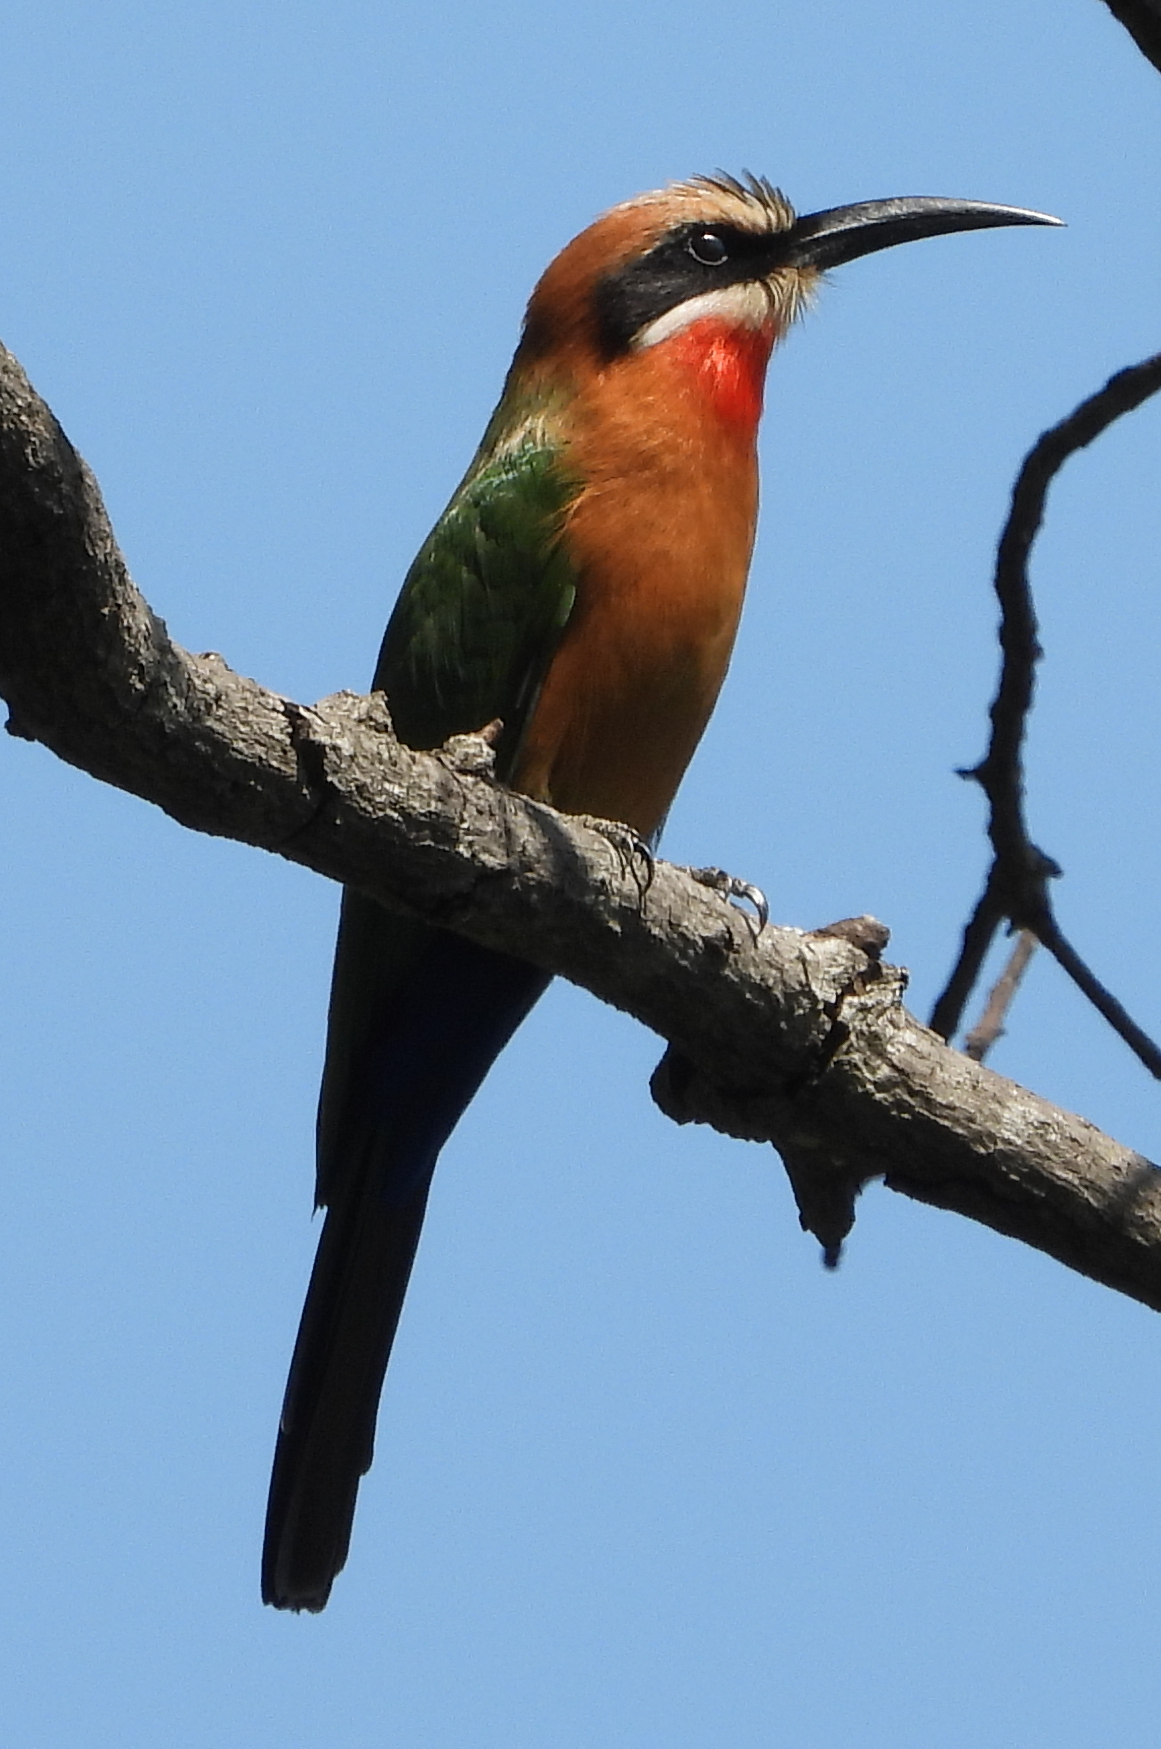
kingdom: Animalia
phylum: Chordata
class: Aves
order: Coraciiformes
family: Meropidae
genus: Merops
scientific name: Merops bullockoides
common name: White-fronted bee-eater
